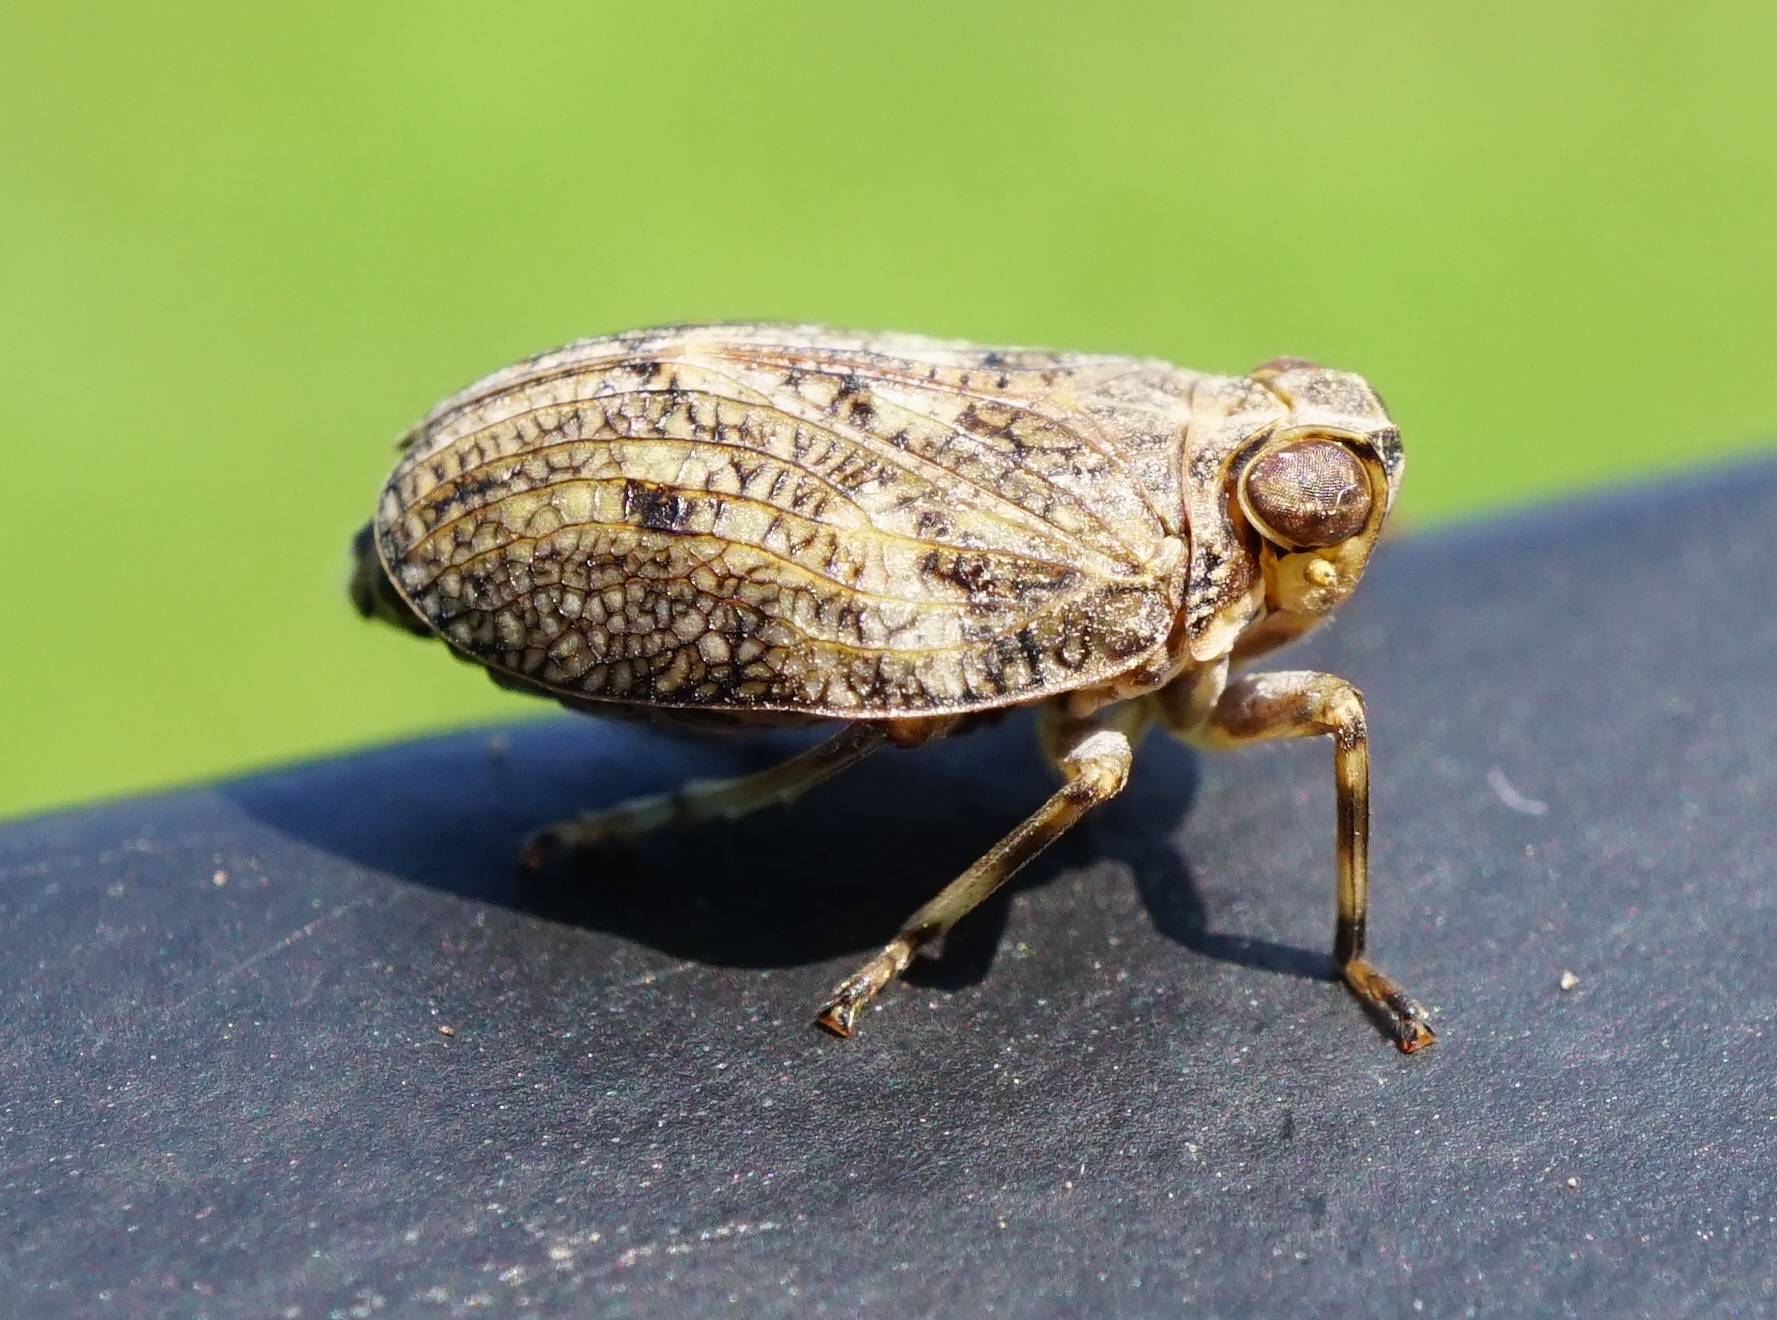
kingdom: Animalia
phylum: Arthropoda
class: Insecta
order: Hemiptera
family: Issidae
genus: Issus
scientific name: Issus coleoptratus
